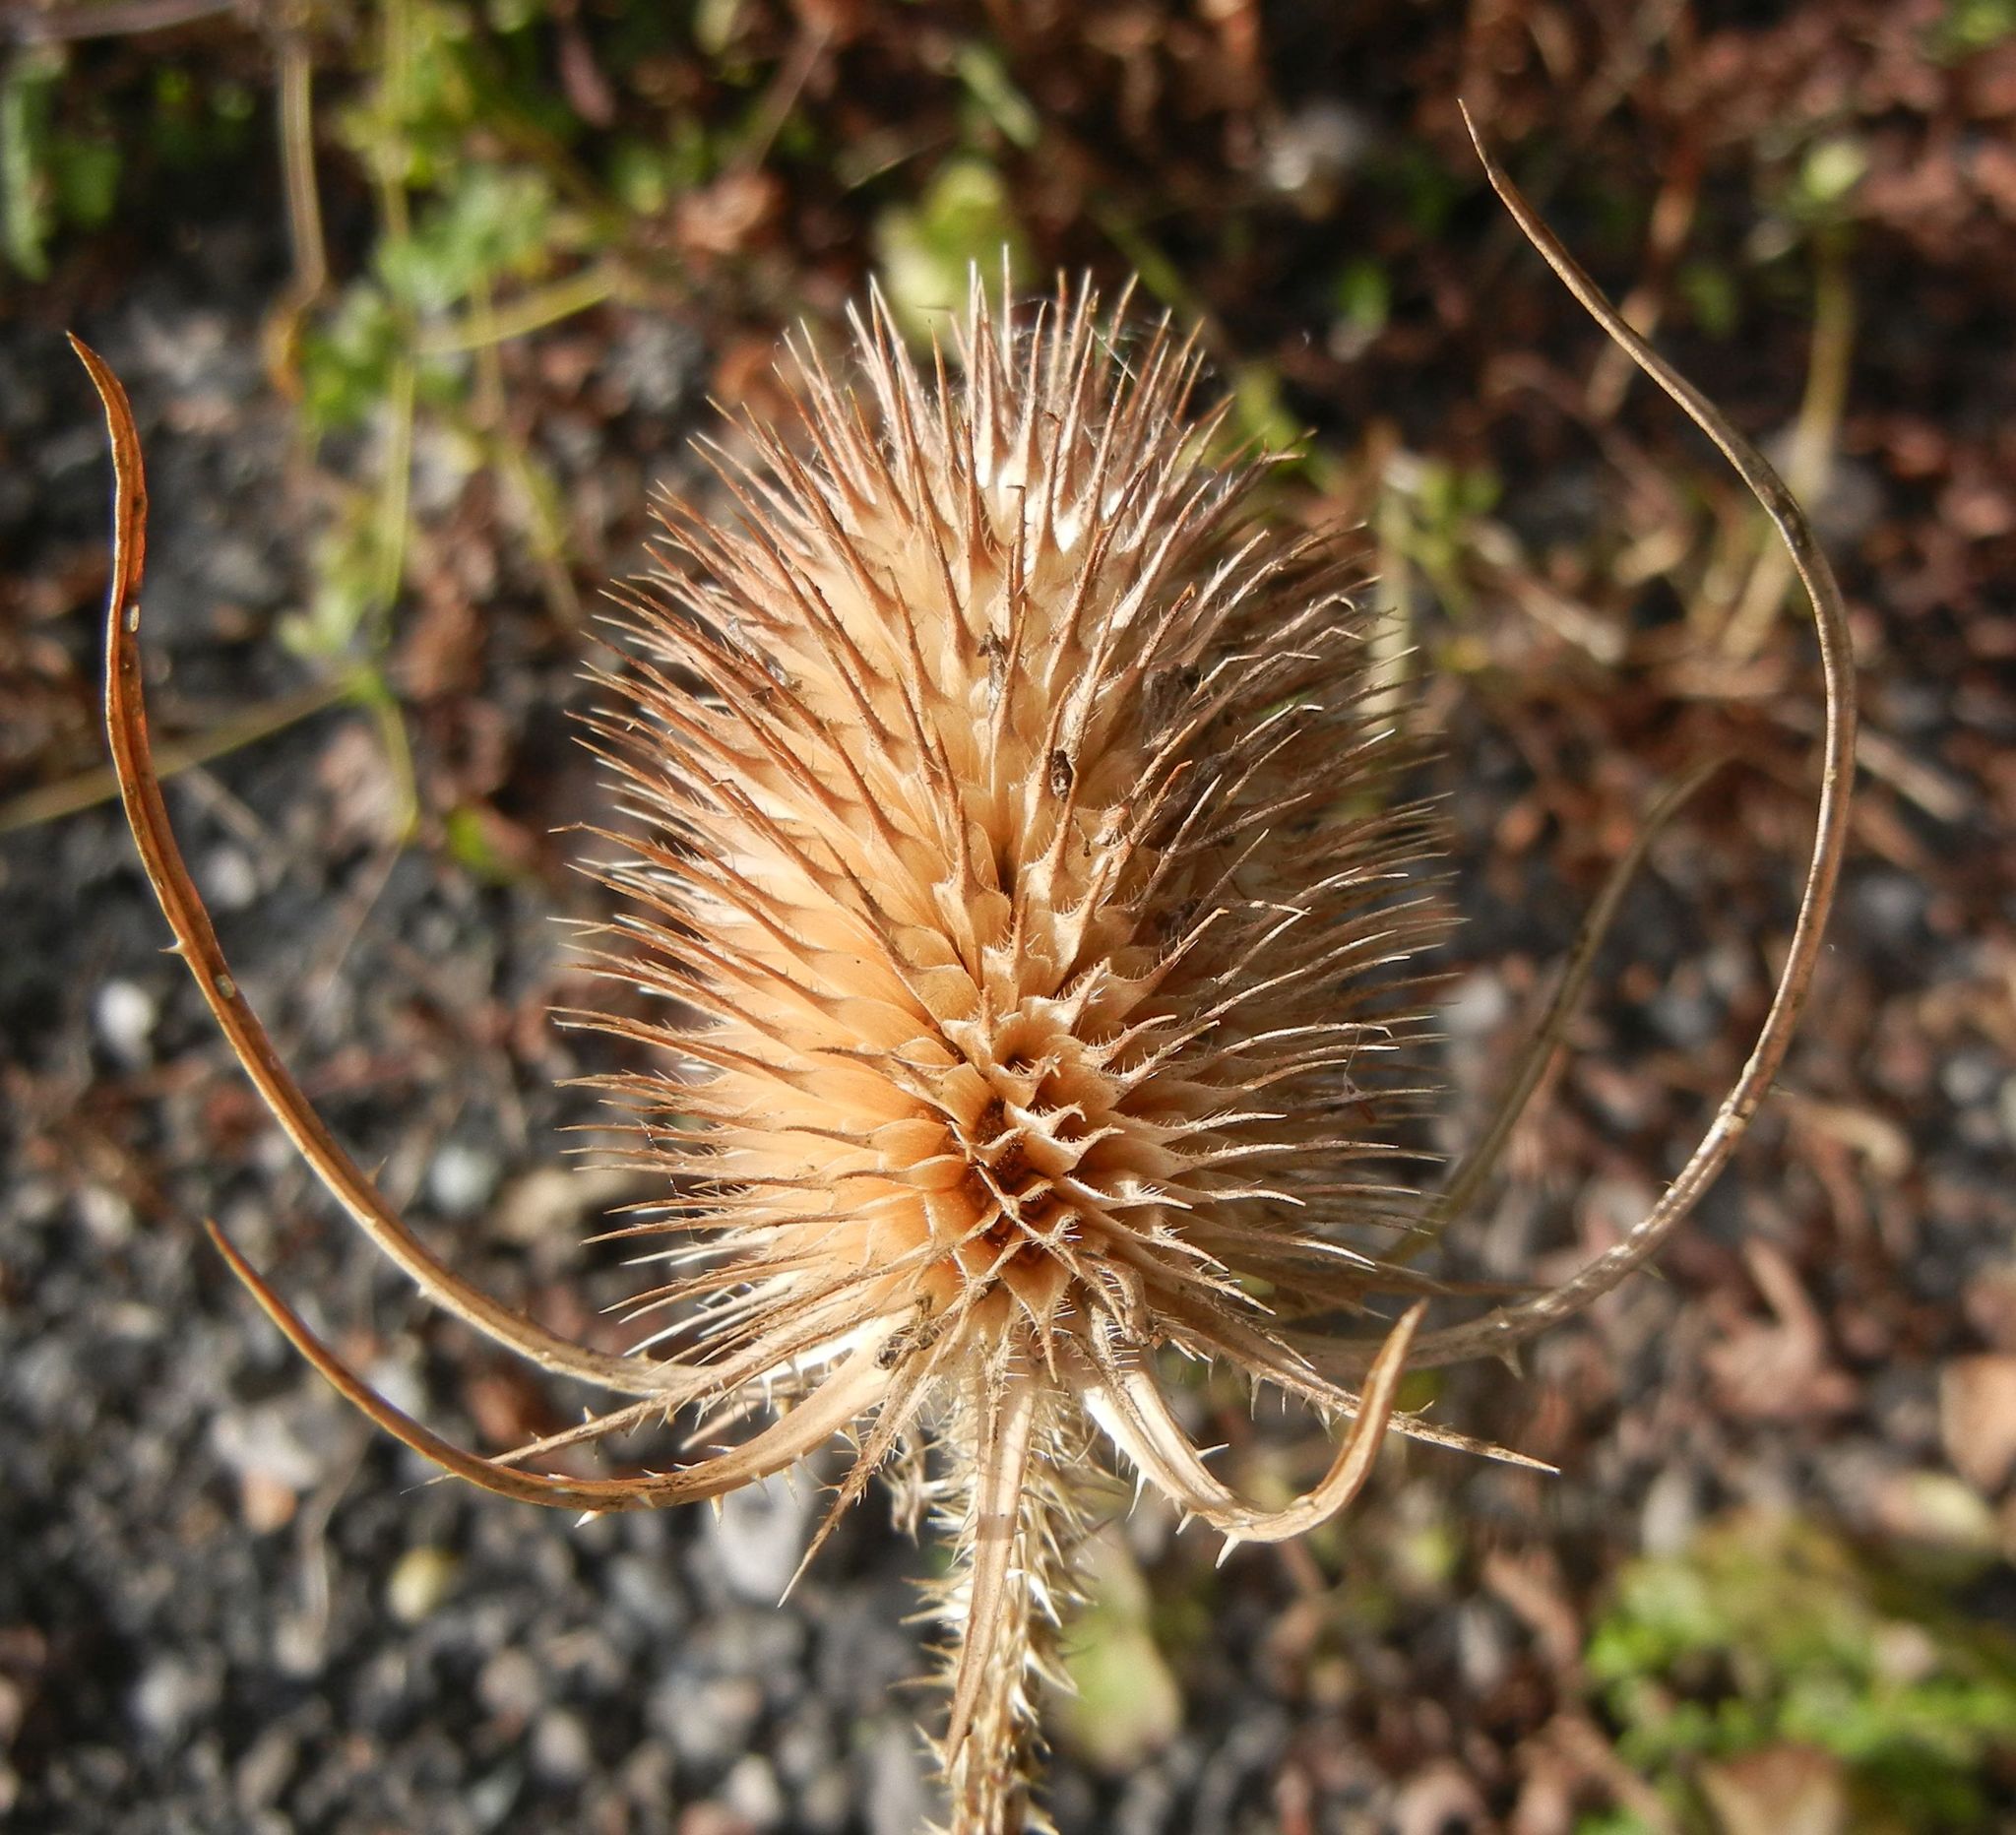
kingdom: Plantae
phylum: Tracheophyta
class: Magnoliopsida
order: Dipsacales
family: Caprifoliaceae
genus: Dipsacus
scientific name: Dipsacus fullonum
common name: Teasel
